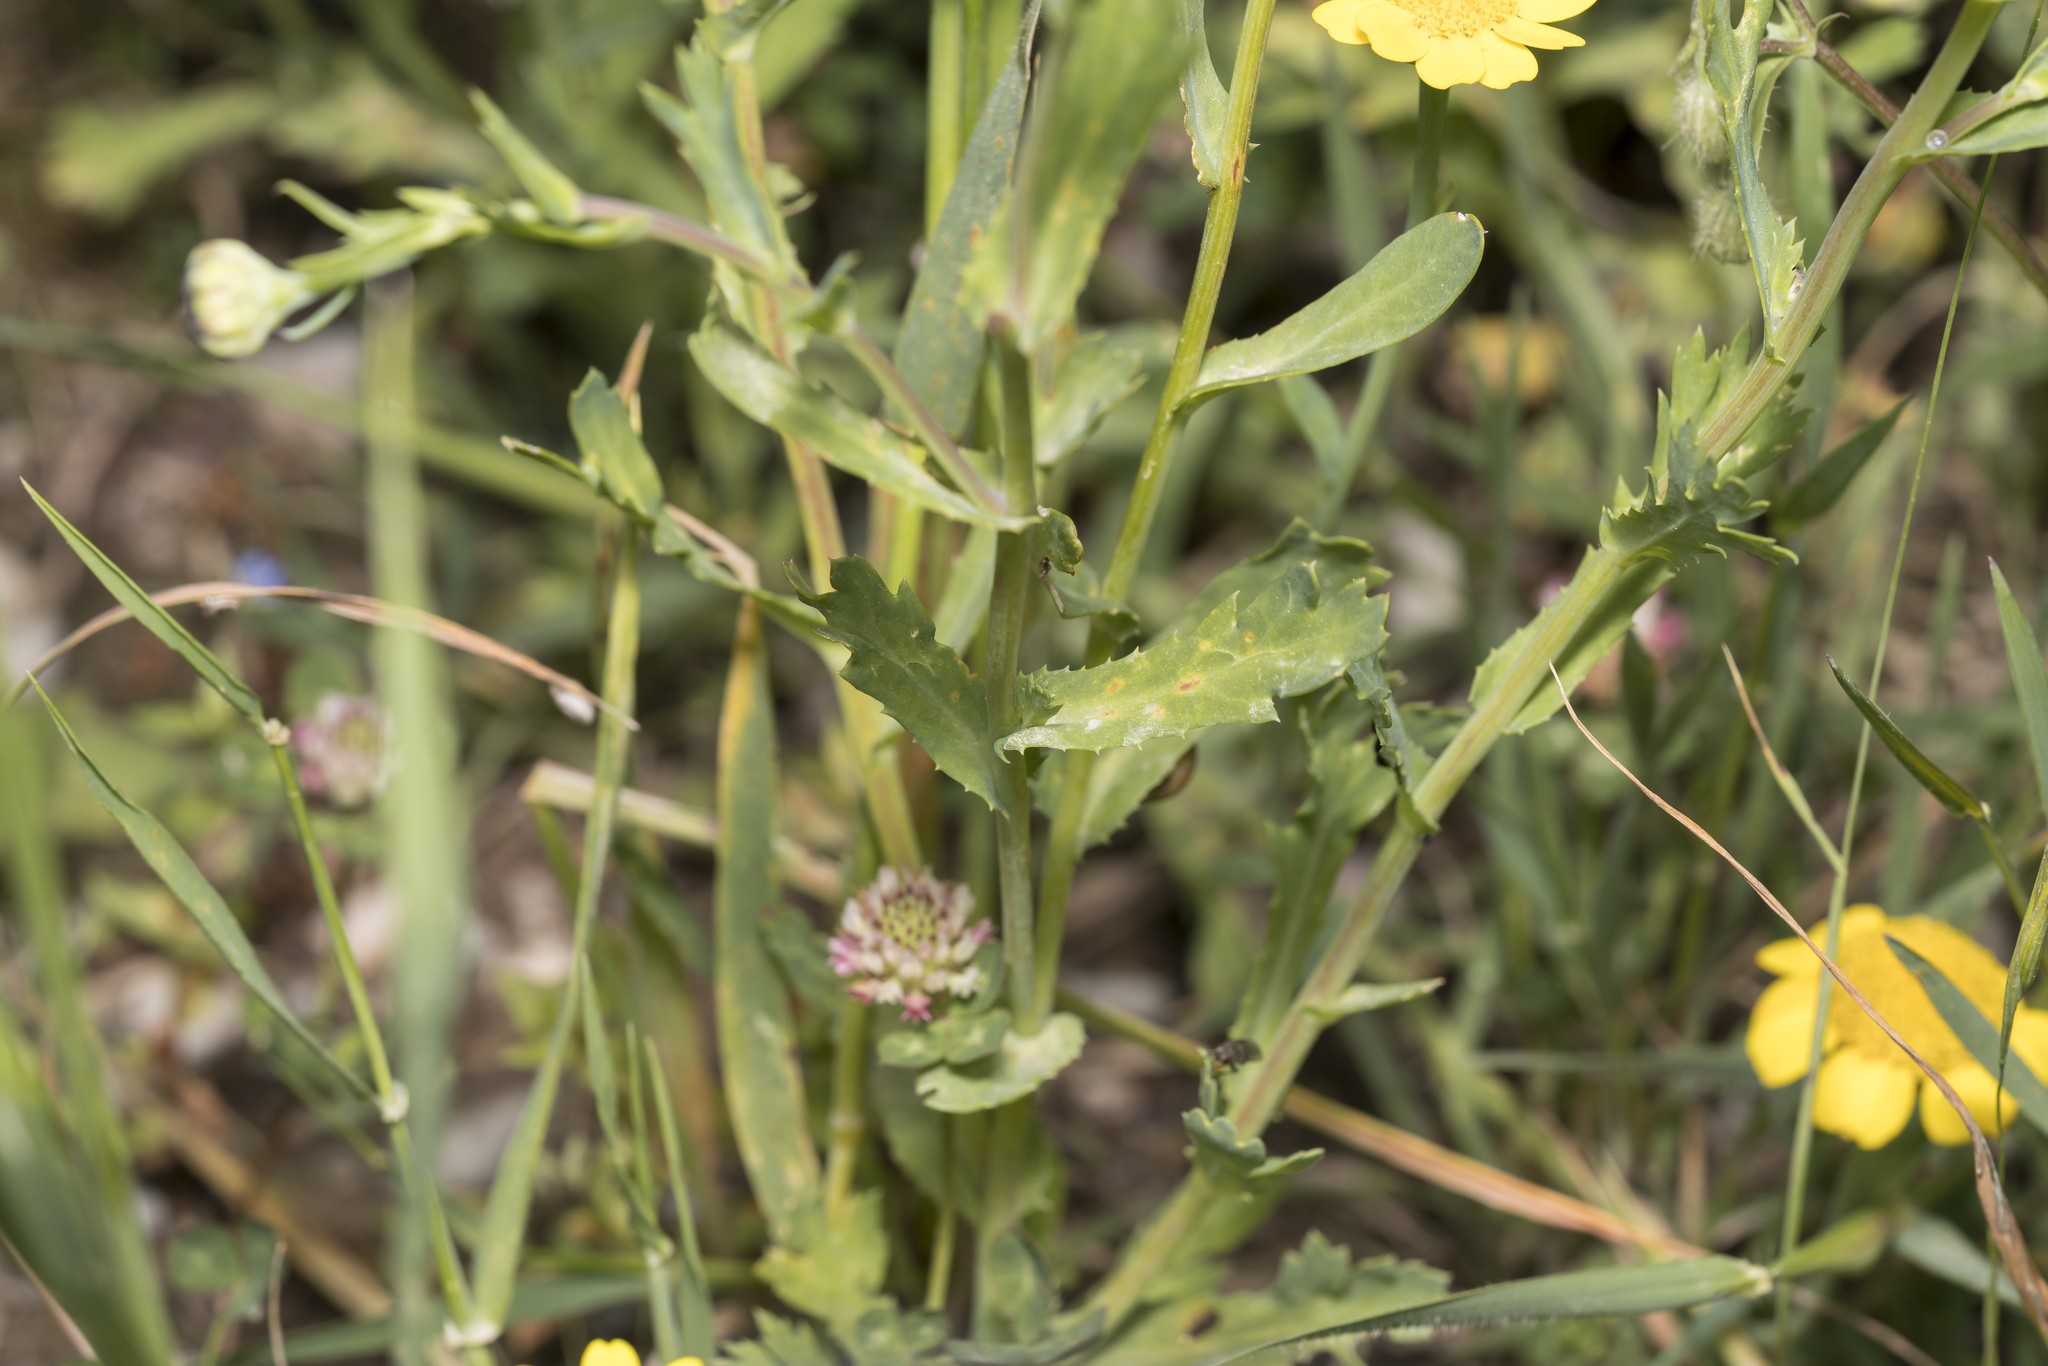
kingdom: Plantae
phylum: Tracheophyta
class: Magnoliopsida
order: Asterales
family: Asteraceae
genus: Glebionis
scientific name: Glebionis segetum
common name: Corndaisy
